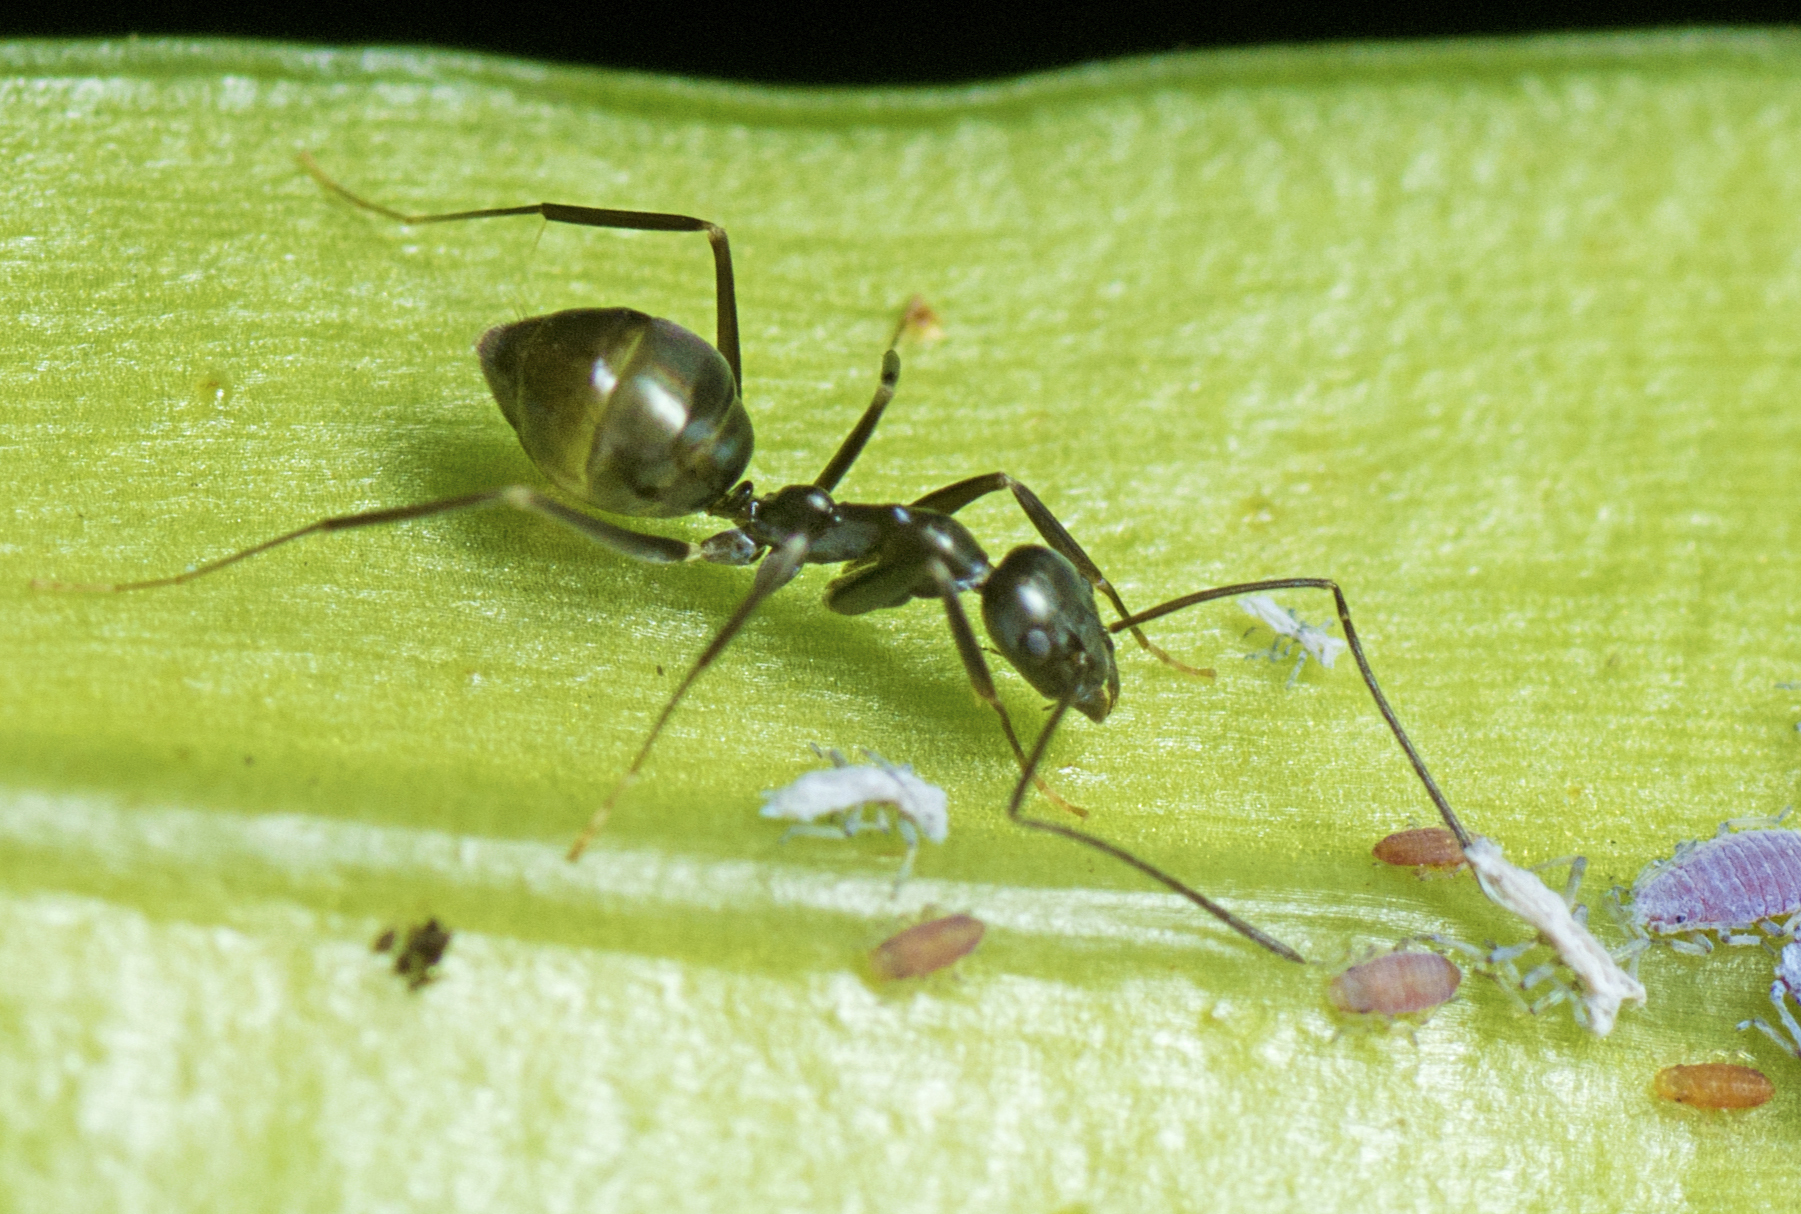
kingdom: Animalia
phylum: Arthropoda
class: Insecta
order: Hymenoptera
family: Formicidae
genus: Leptomyrmex
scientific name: Leptomyrmex burwelli
